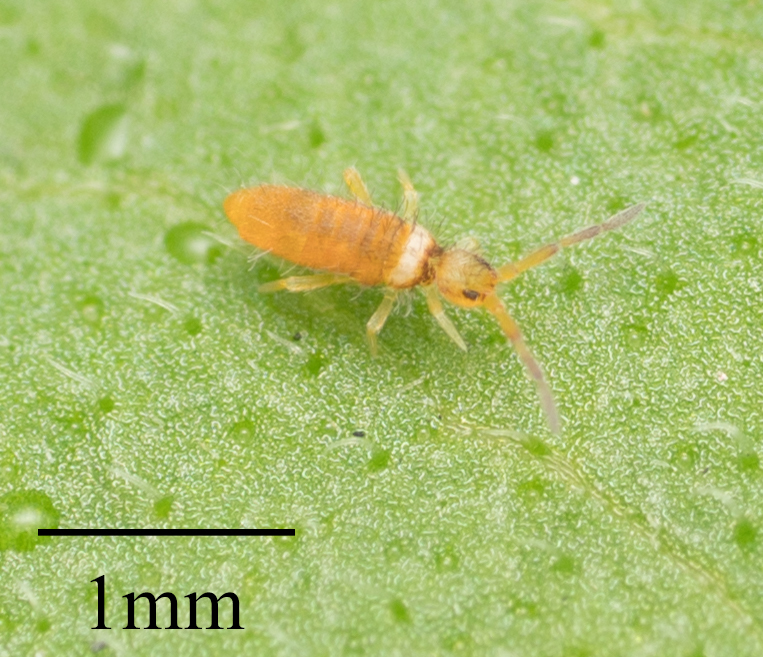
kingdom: Animalia
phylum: Arthropoda
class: Collembola
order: Entomobryomorpha
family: Entomobryidae
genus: Entomobrya
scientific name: Entomobrya atrocincta
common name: Springtail
